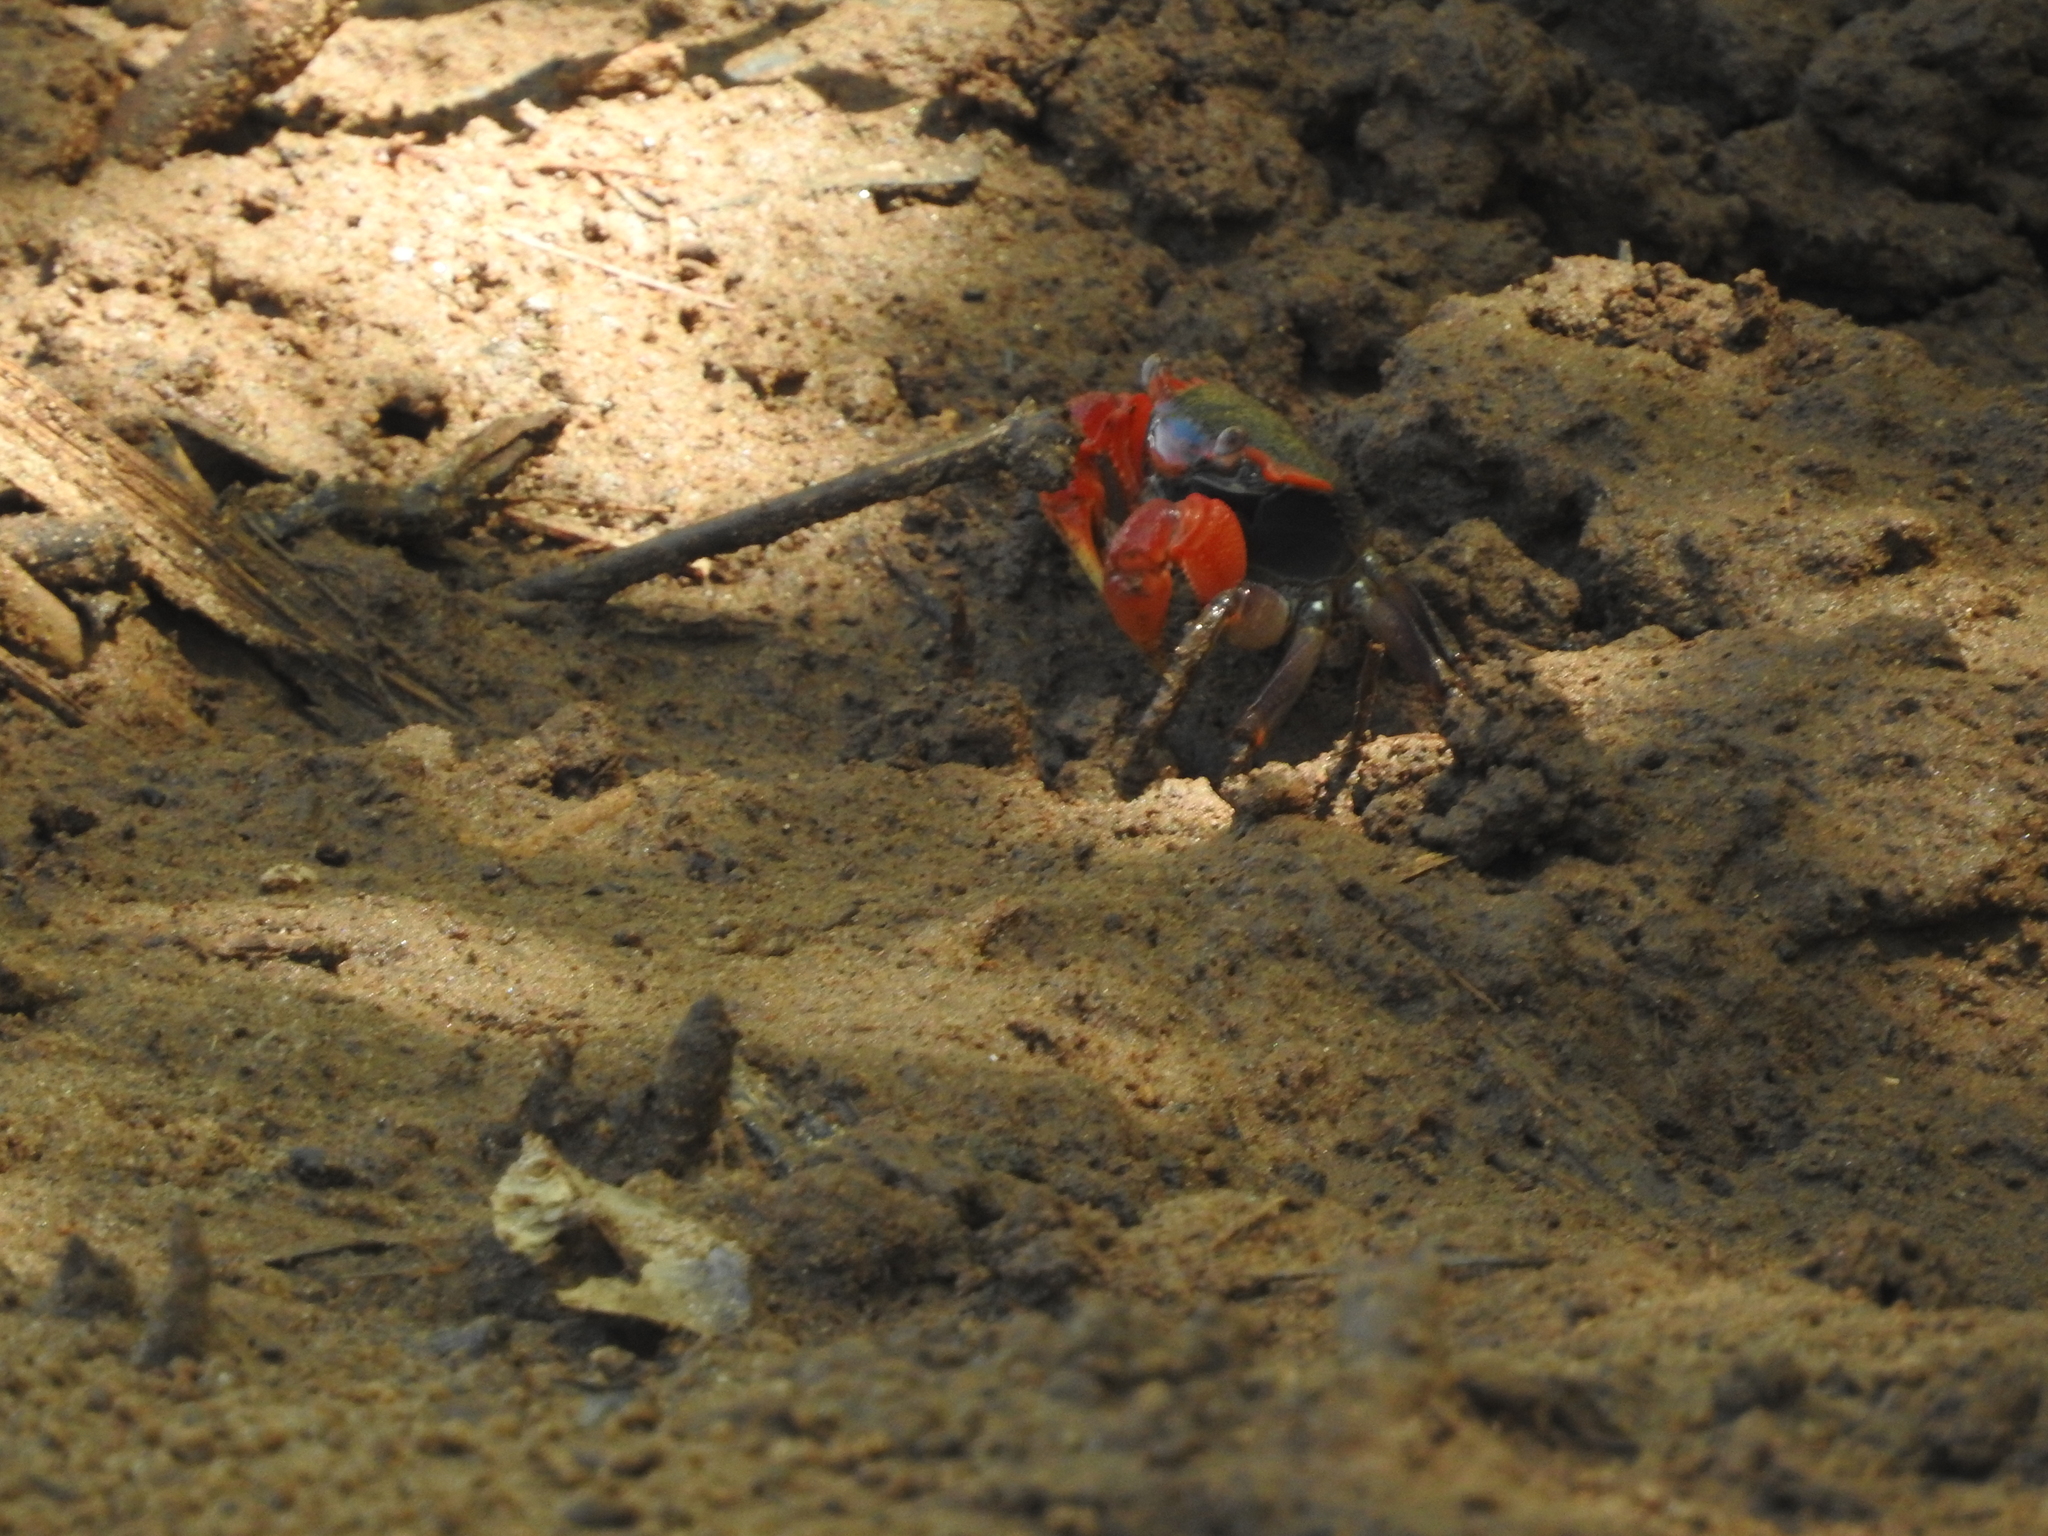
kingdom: Animalia
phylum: Arthropoda
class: Malacostraca
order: Decapoda
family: Sesarmidae
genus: Neosarmatium
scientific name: Neosarmatium africanum
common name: East african red mangrove crab
